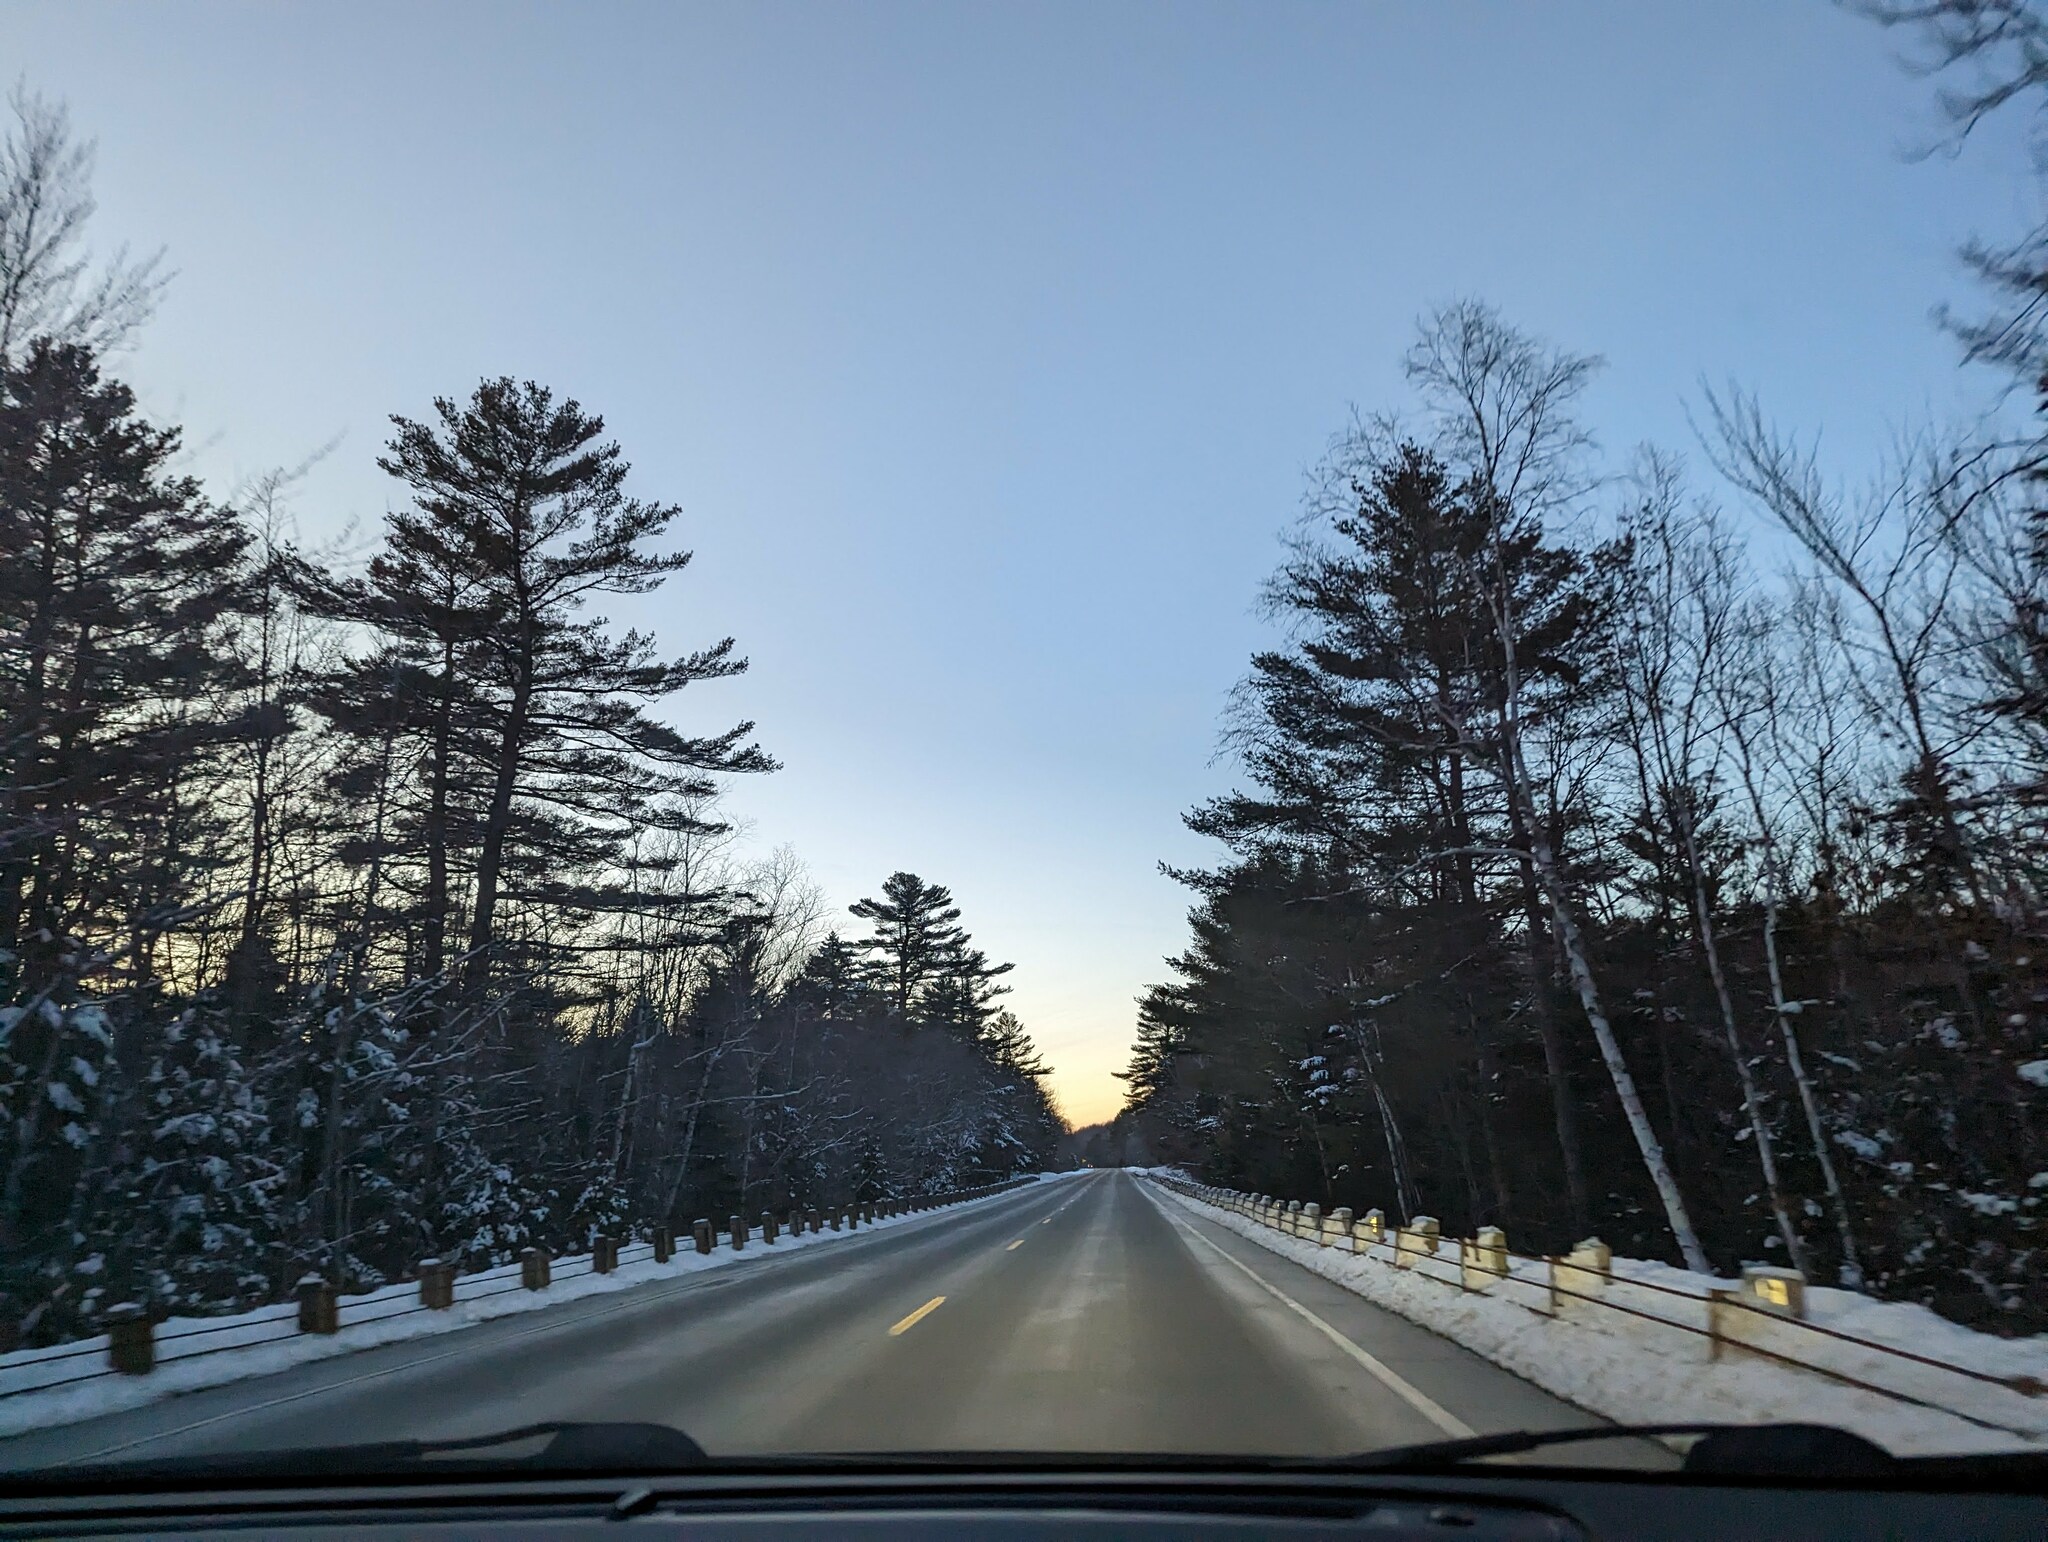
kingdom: Plantae
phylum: Tracheophyta
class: Pinopsida
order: Pinales
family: Pinaceae
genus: Pinus
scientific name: Pinus strobus
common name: Weymouth pine
